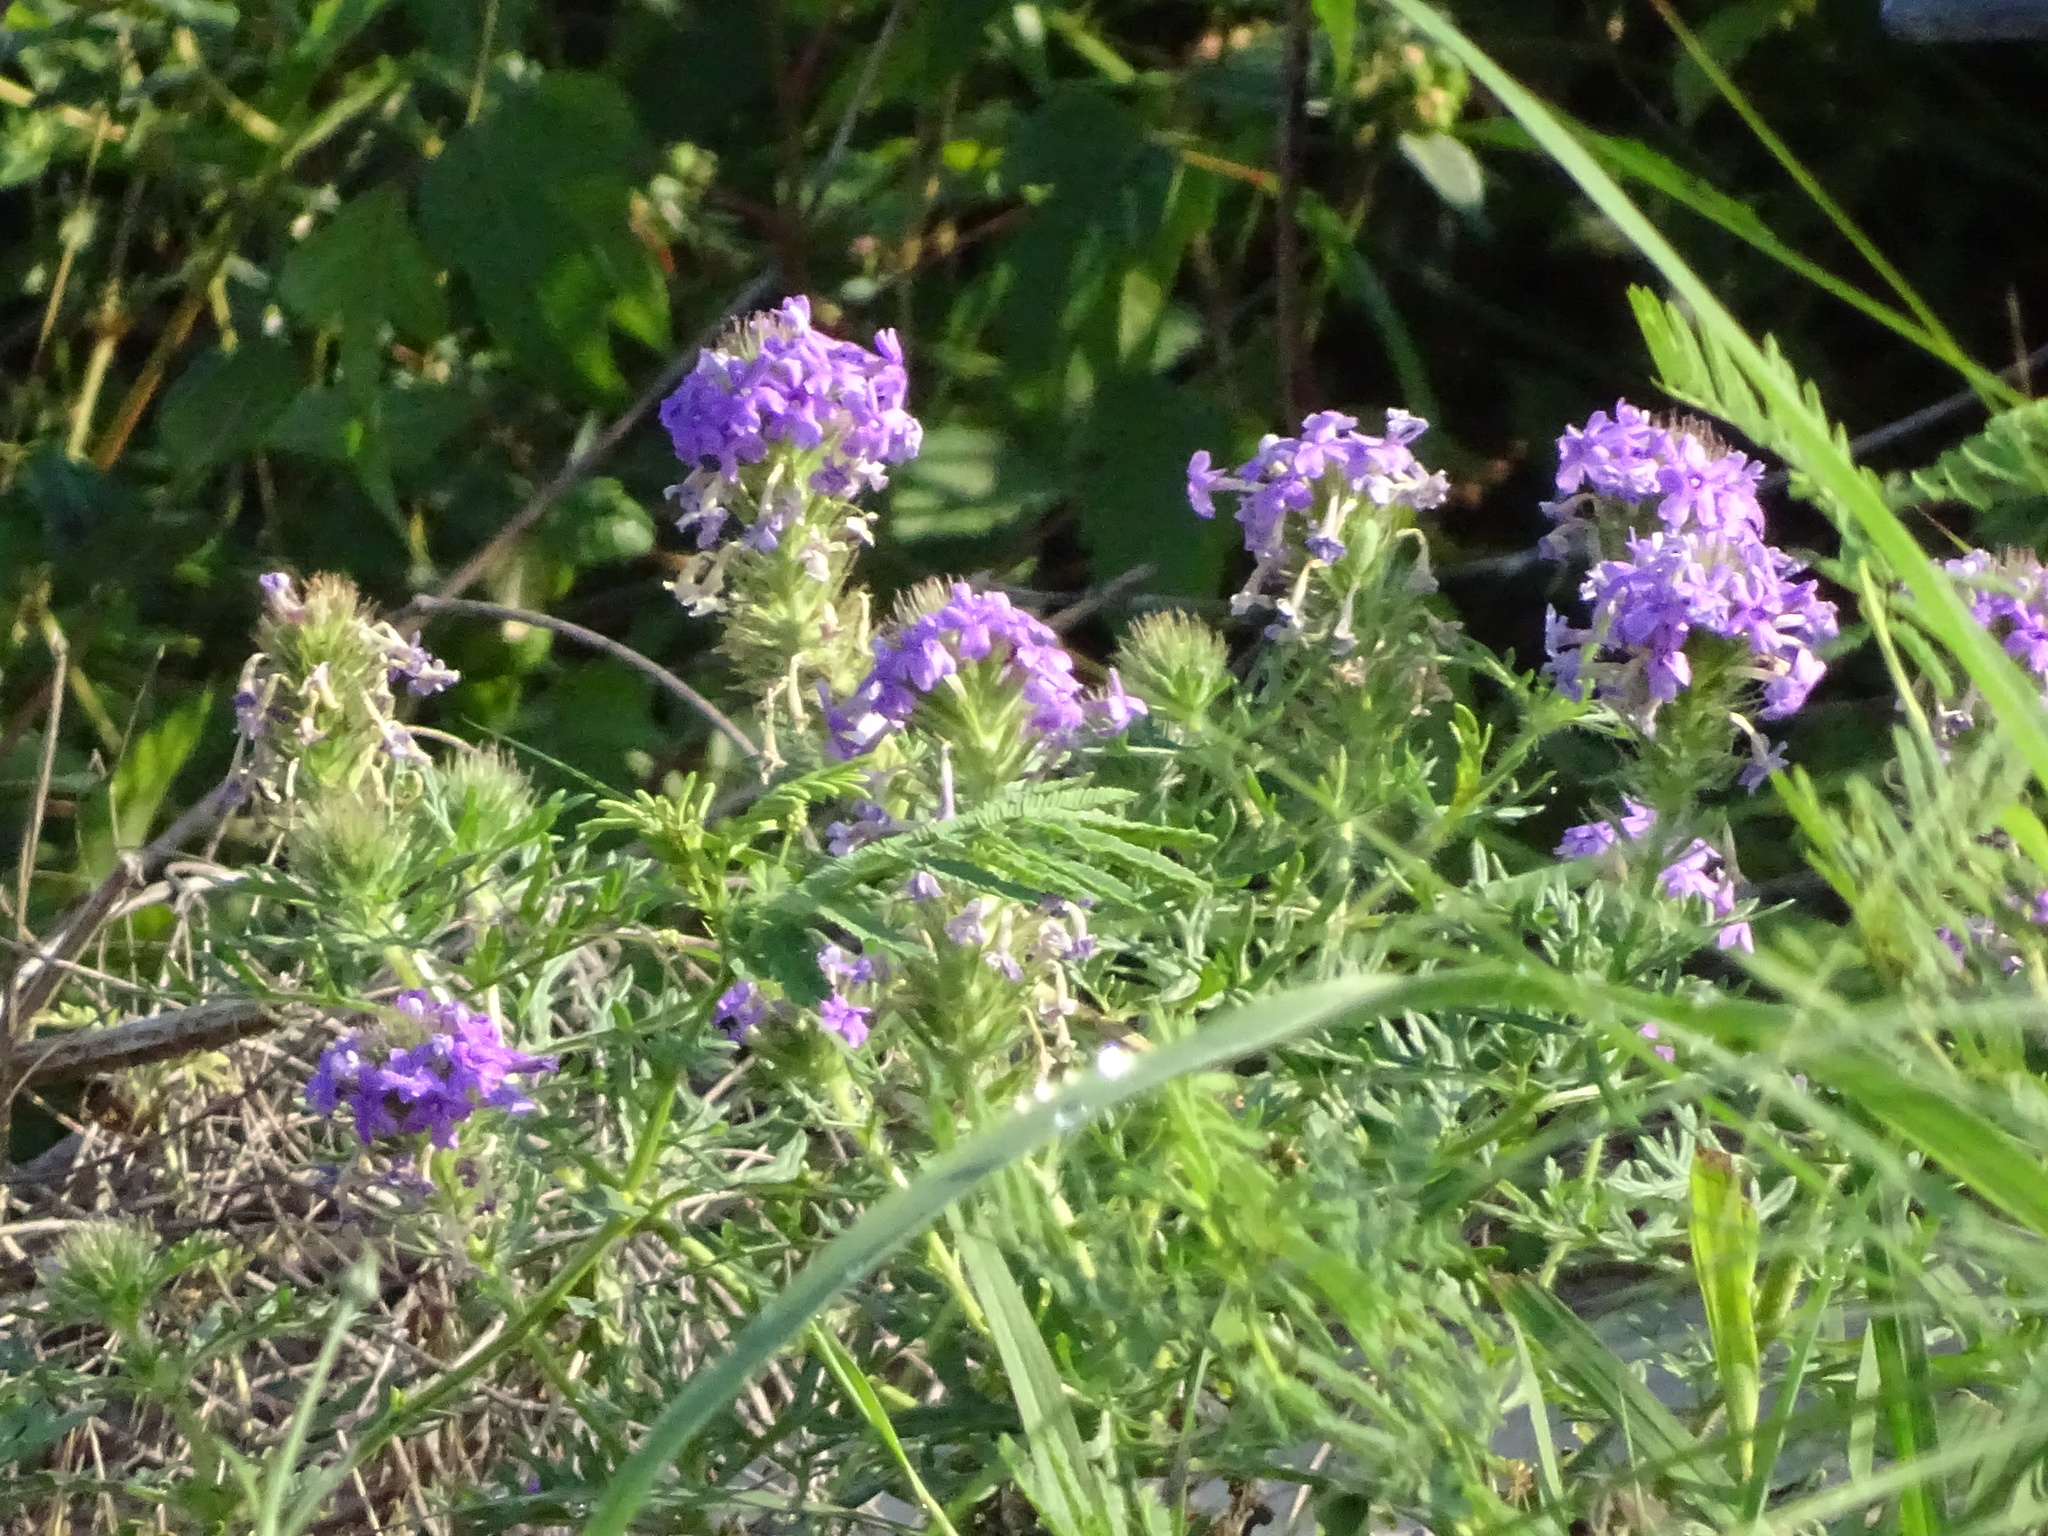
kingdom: Plantae
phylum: Tracheophyta
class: Magnoliopsida
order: Lamiales
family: Verbenaceae
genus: Verbena
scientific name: Verbena bipinnatifida
